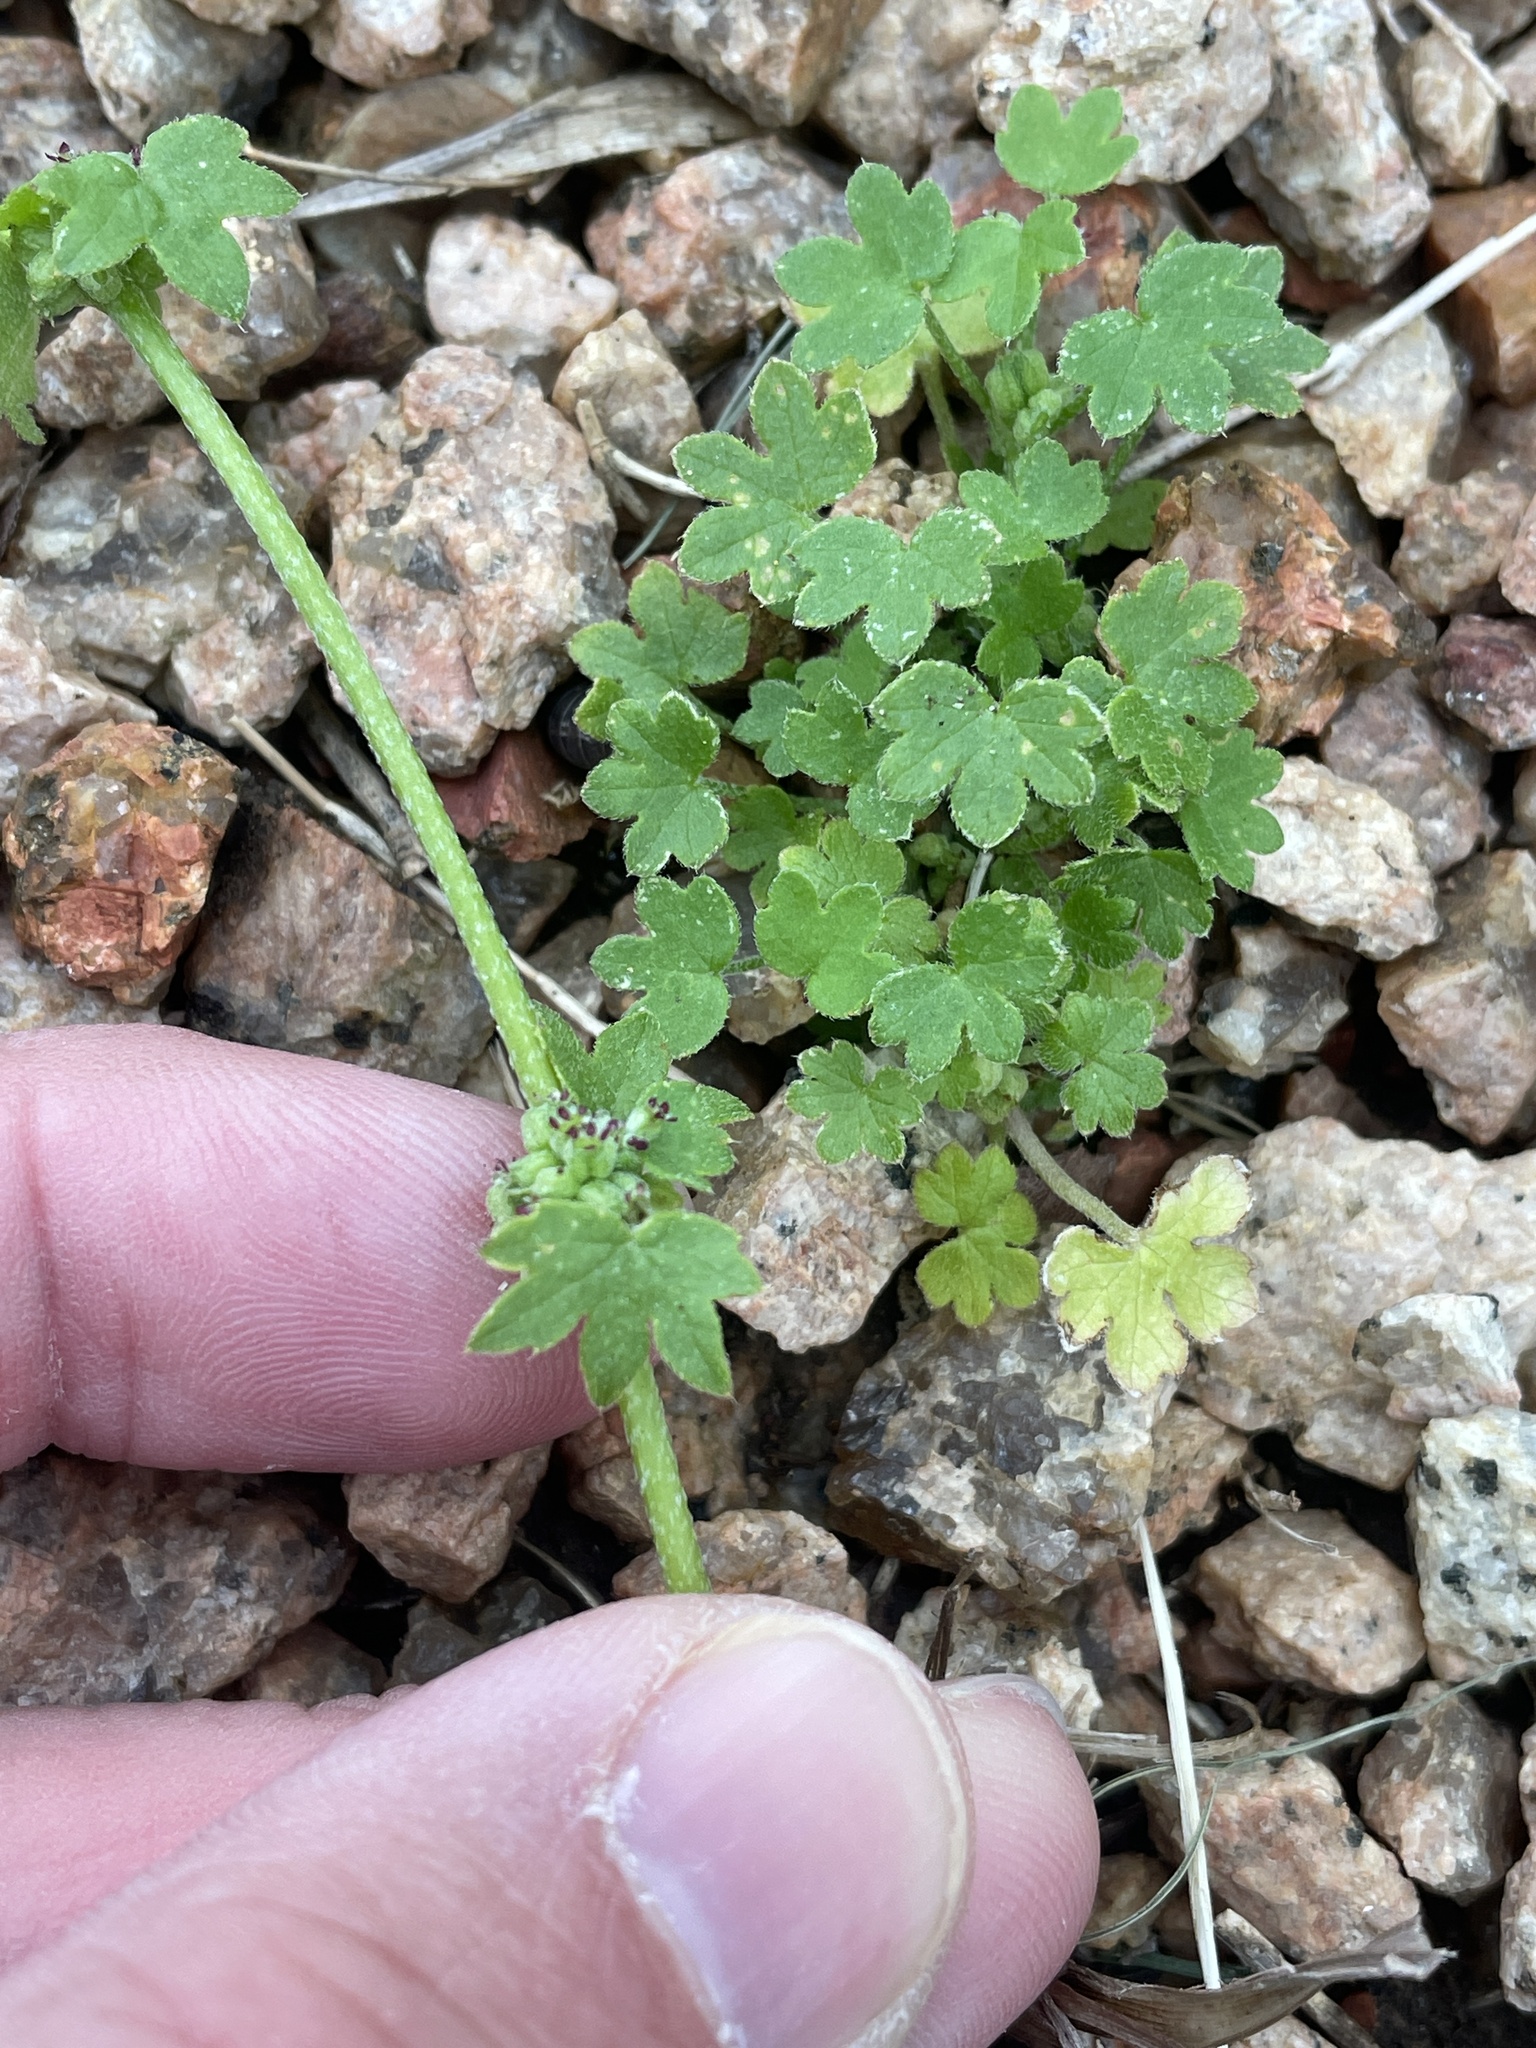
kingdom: Plantae
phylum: Tracheophyta
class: Magnoliopsida
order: Apiales
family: Apiaceae
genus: Bowlesia
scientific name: Bowlesia incana
